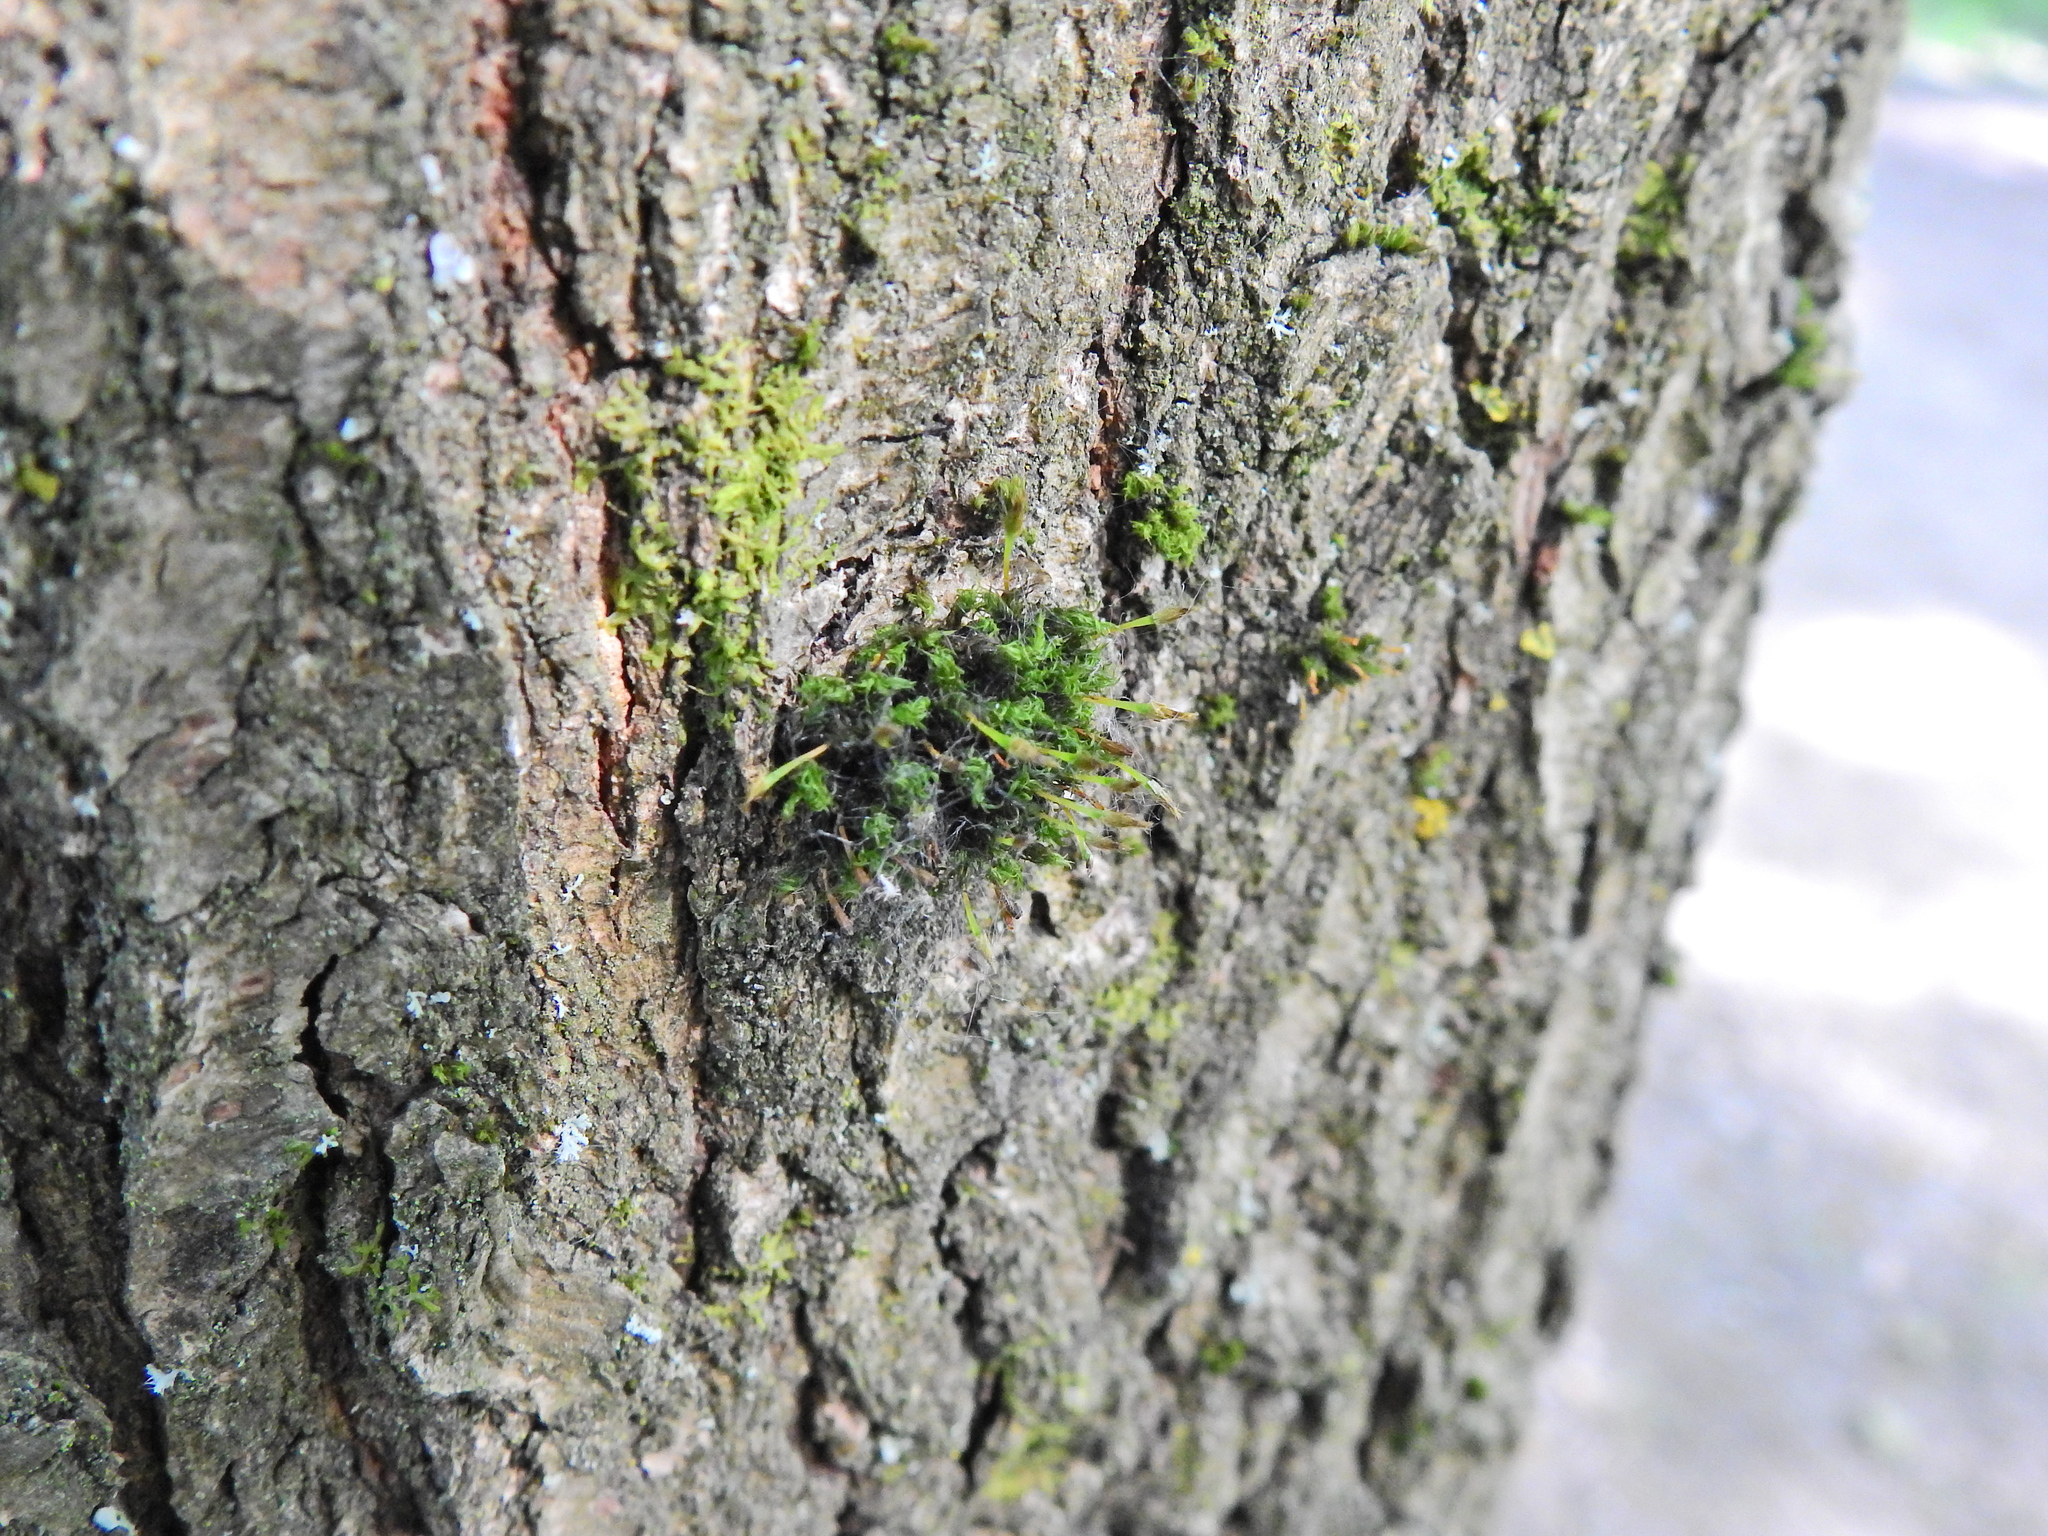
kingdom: Plantae
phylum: Bryophyta
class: Bryopsida
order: Orthotrichales
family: Orthotrichaceae
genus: Ulota
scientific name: Ulota bruchii
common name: Bruch's pincushion
